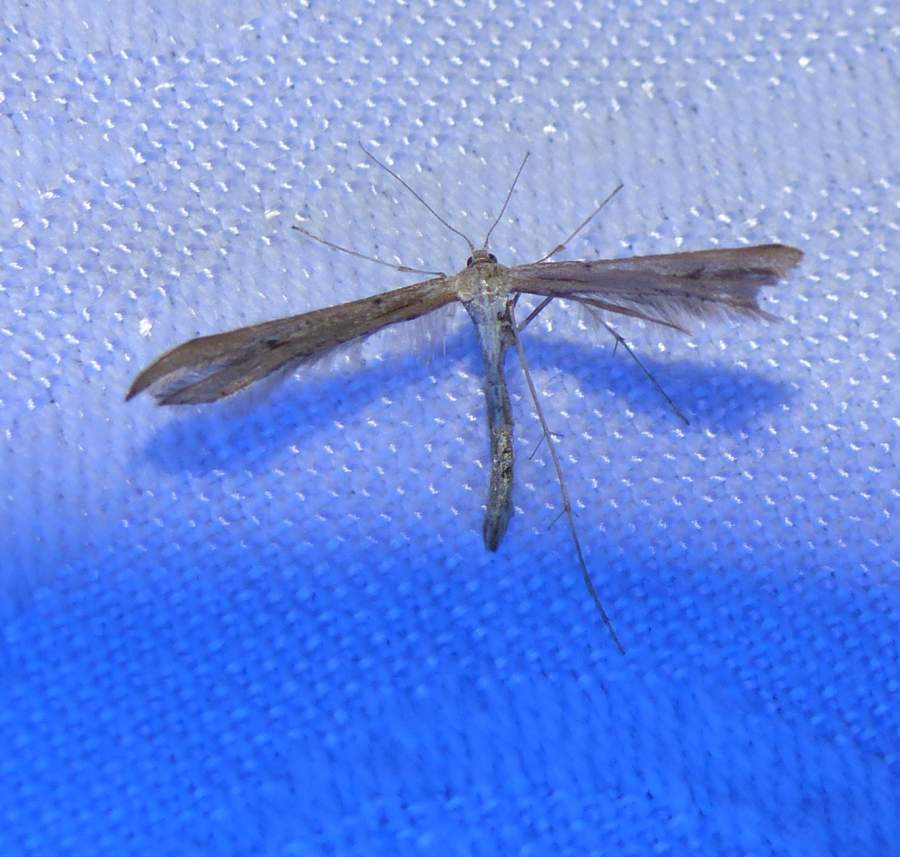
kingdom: Animalia
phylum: Arthropoda
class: Insecta
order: Lepidoptera
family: Pterophoridae
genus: Emmelina
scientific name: Emmelina monodactyla
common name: Common plume
